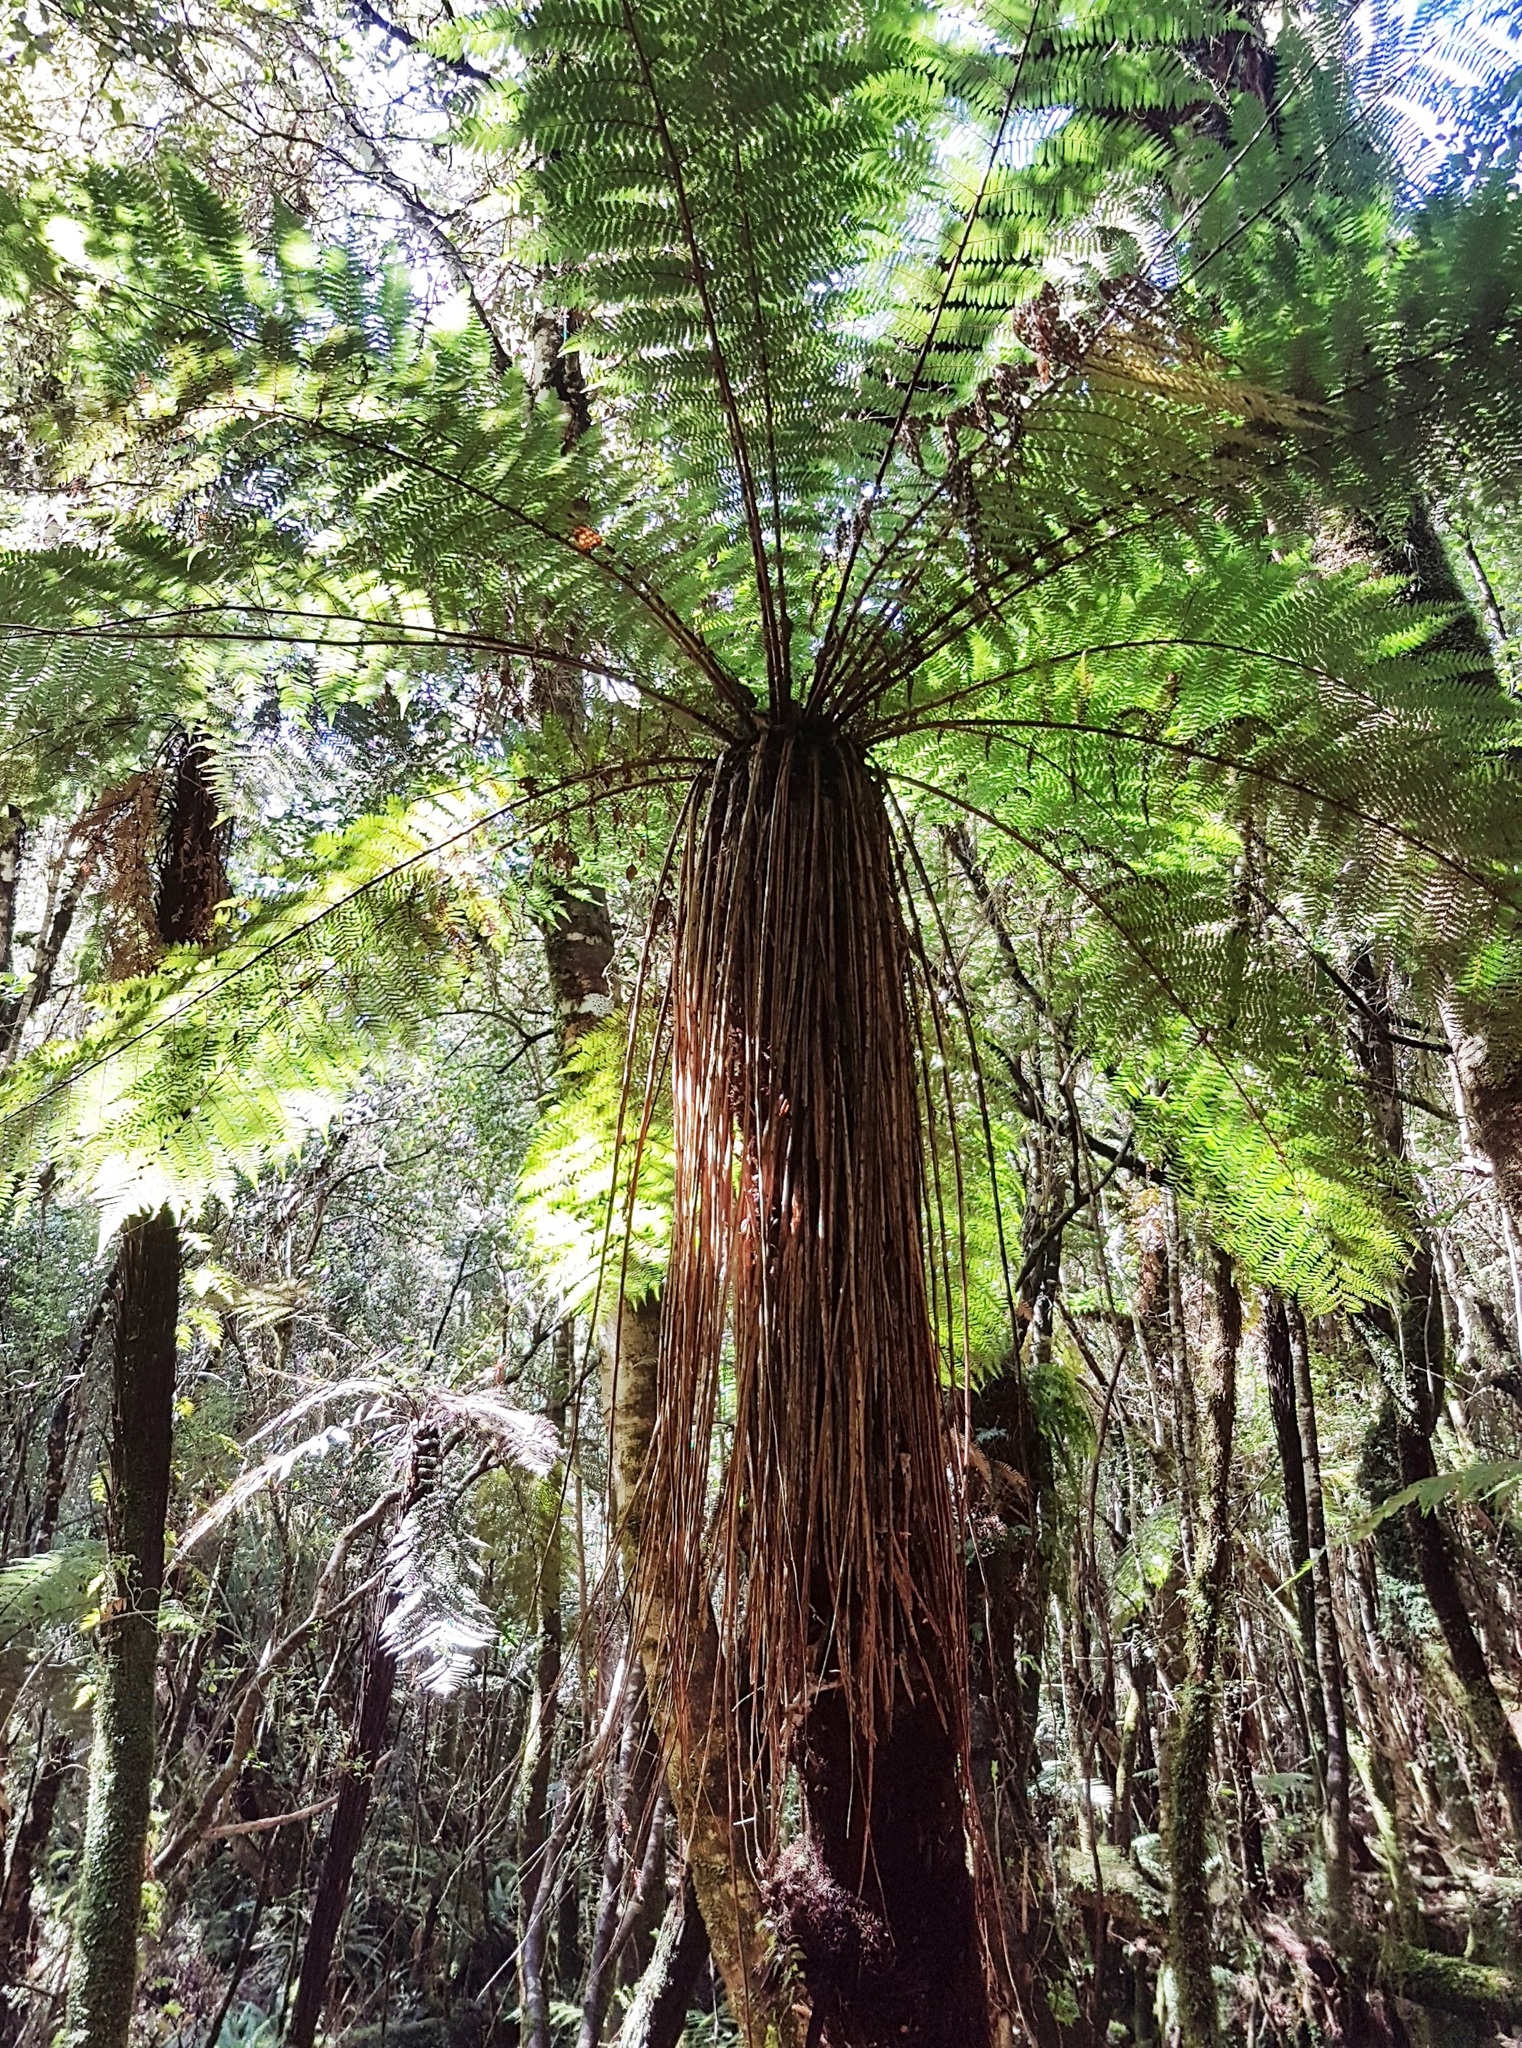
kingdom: Plantae
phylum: Tracheophyta
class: Polypodiopsida
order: Cyatheales
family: Cyatheaceae
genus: Alsophila
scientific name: Alsophila smithii
